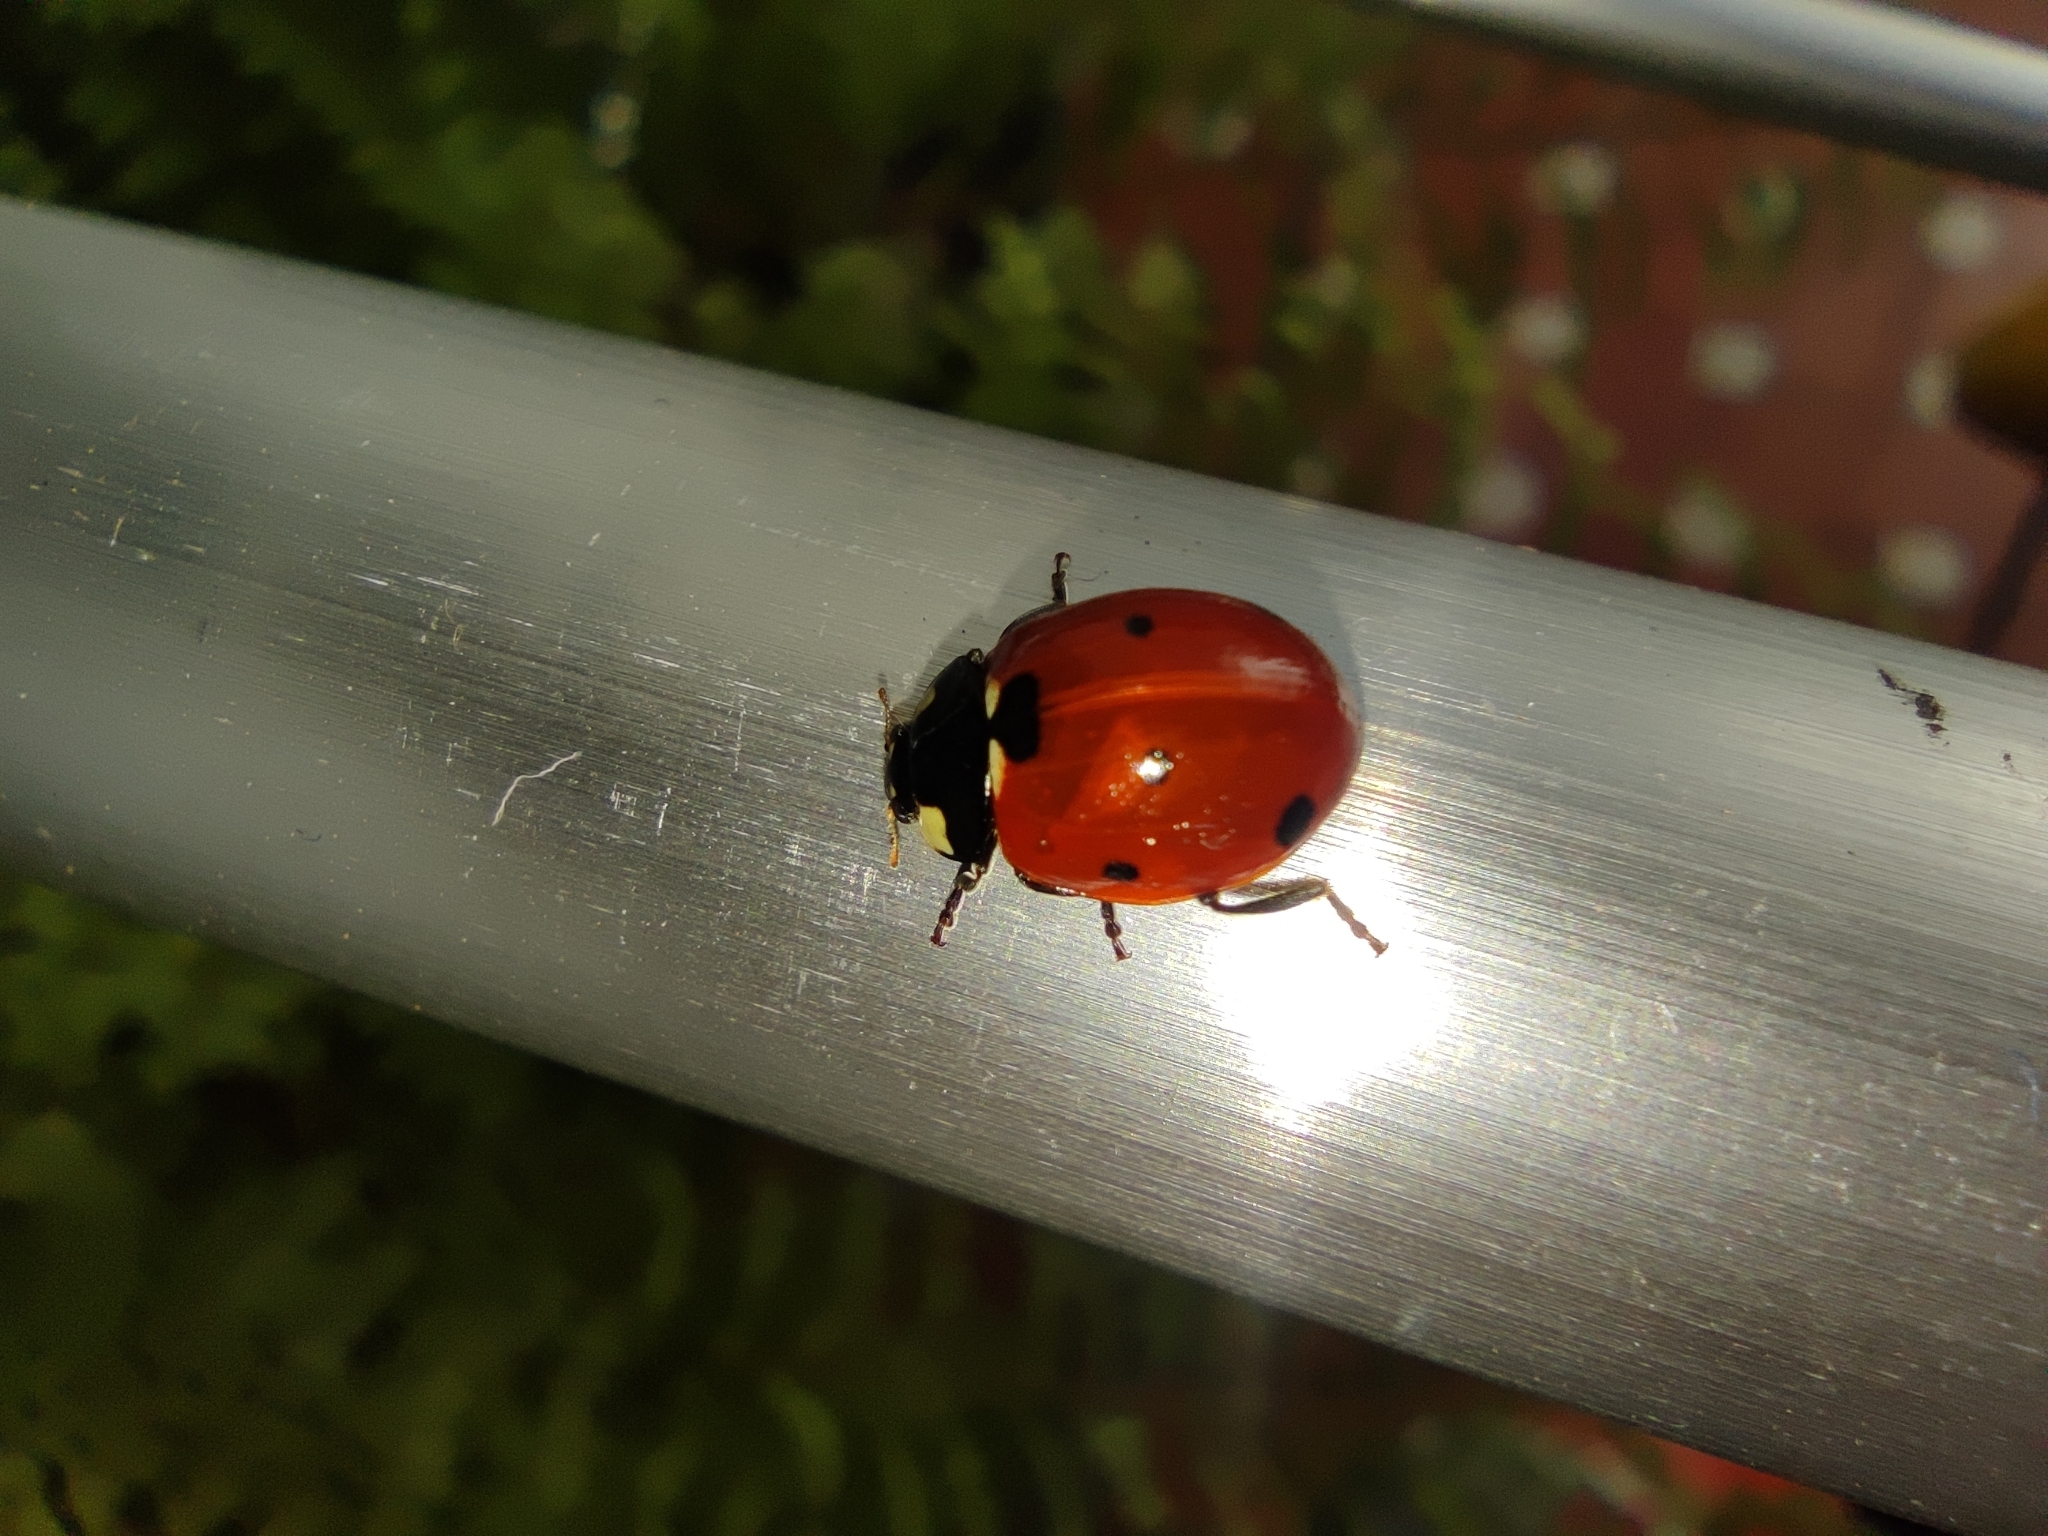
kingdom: Animalia
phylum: Arthropoda
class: Insecta
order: Coleoptera
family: Coccinellidae
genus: Coccinella
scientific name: Coccinella septempunctata
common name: Sevenspotted lady beetle
